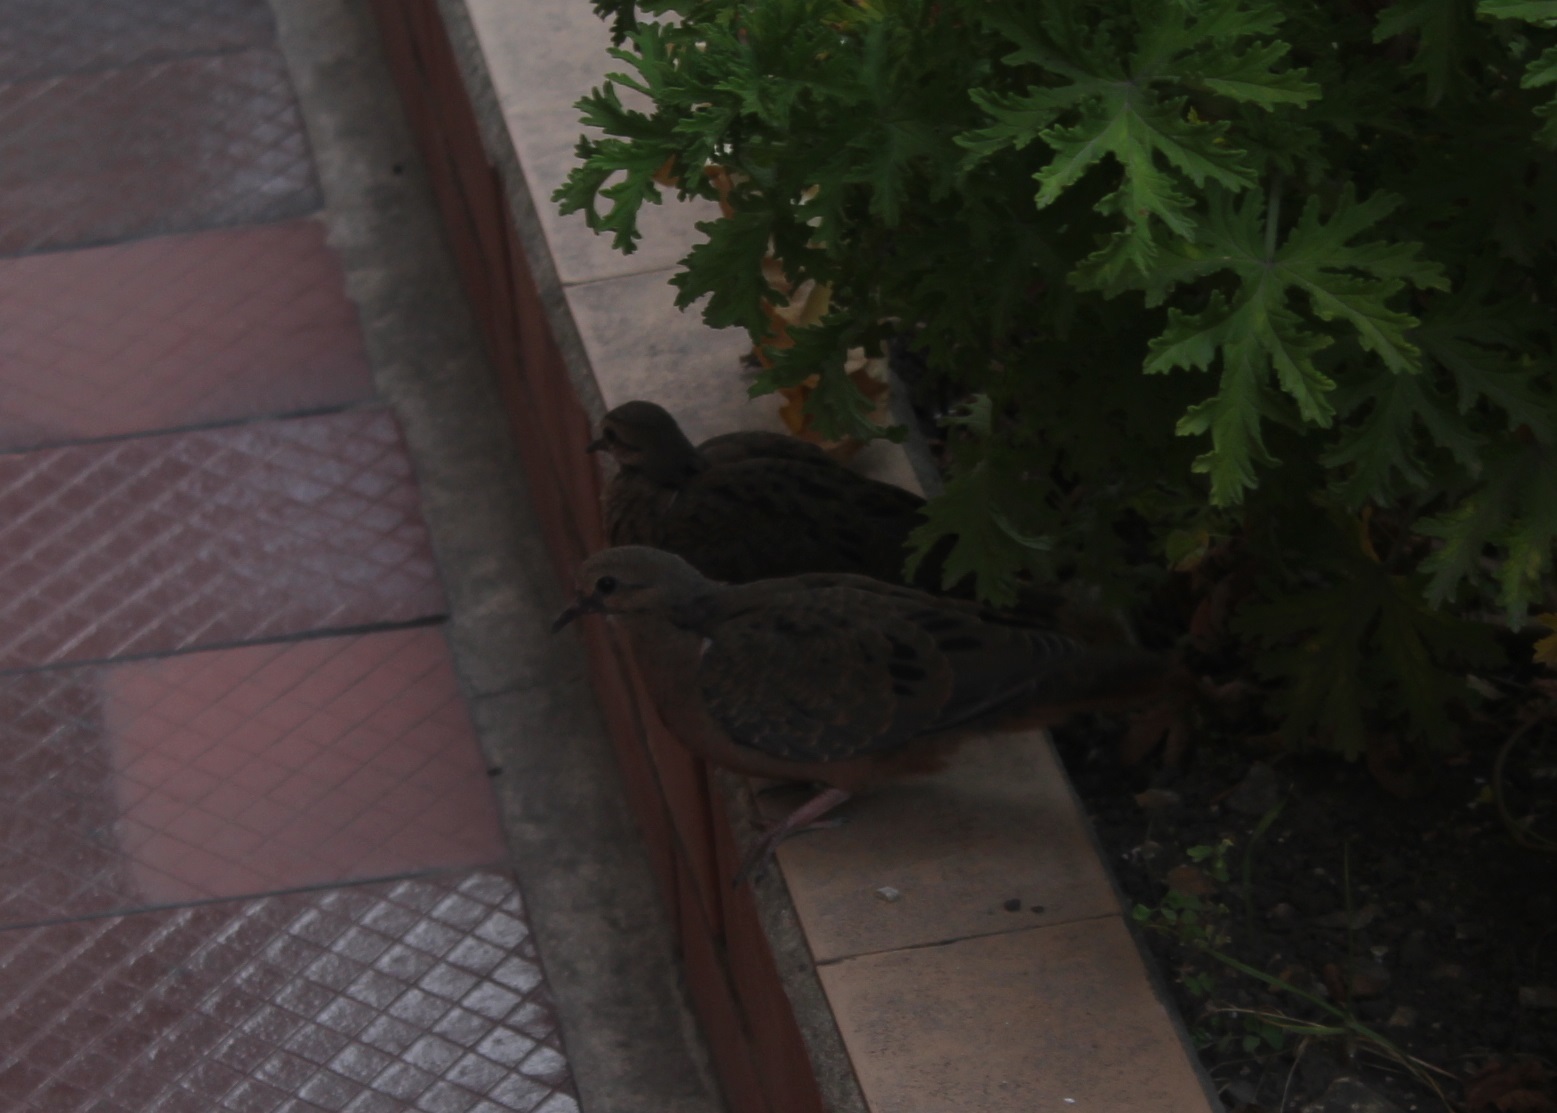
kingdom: Animalia
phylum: Chordata
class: Aves
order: Columbiformes
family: Columbidae
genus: Zenaida
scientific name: Zenaida auriculata
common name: Eared dove
